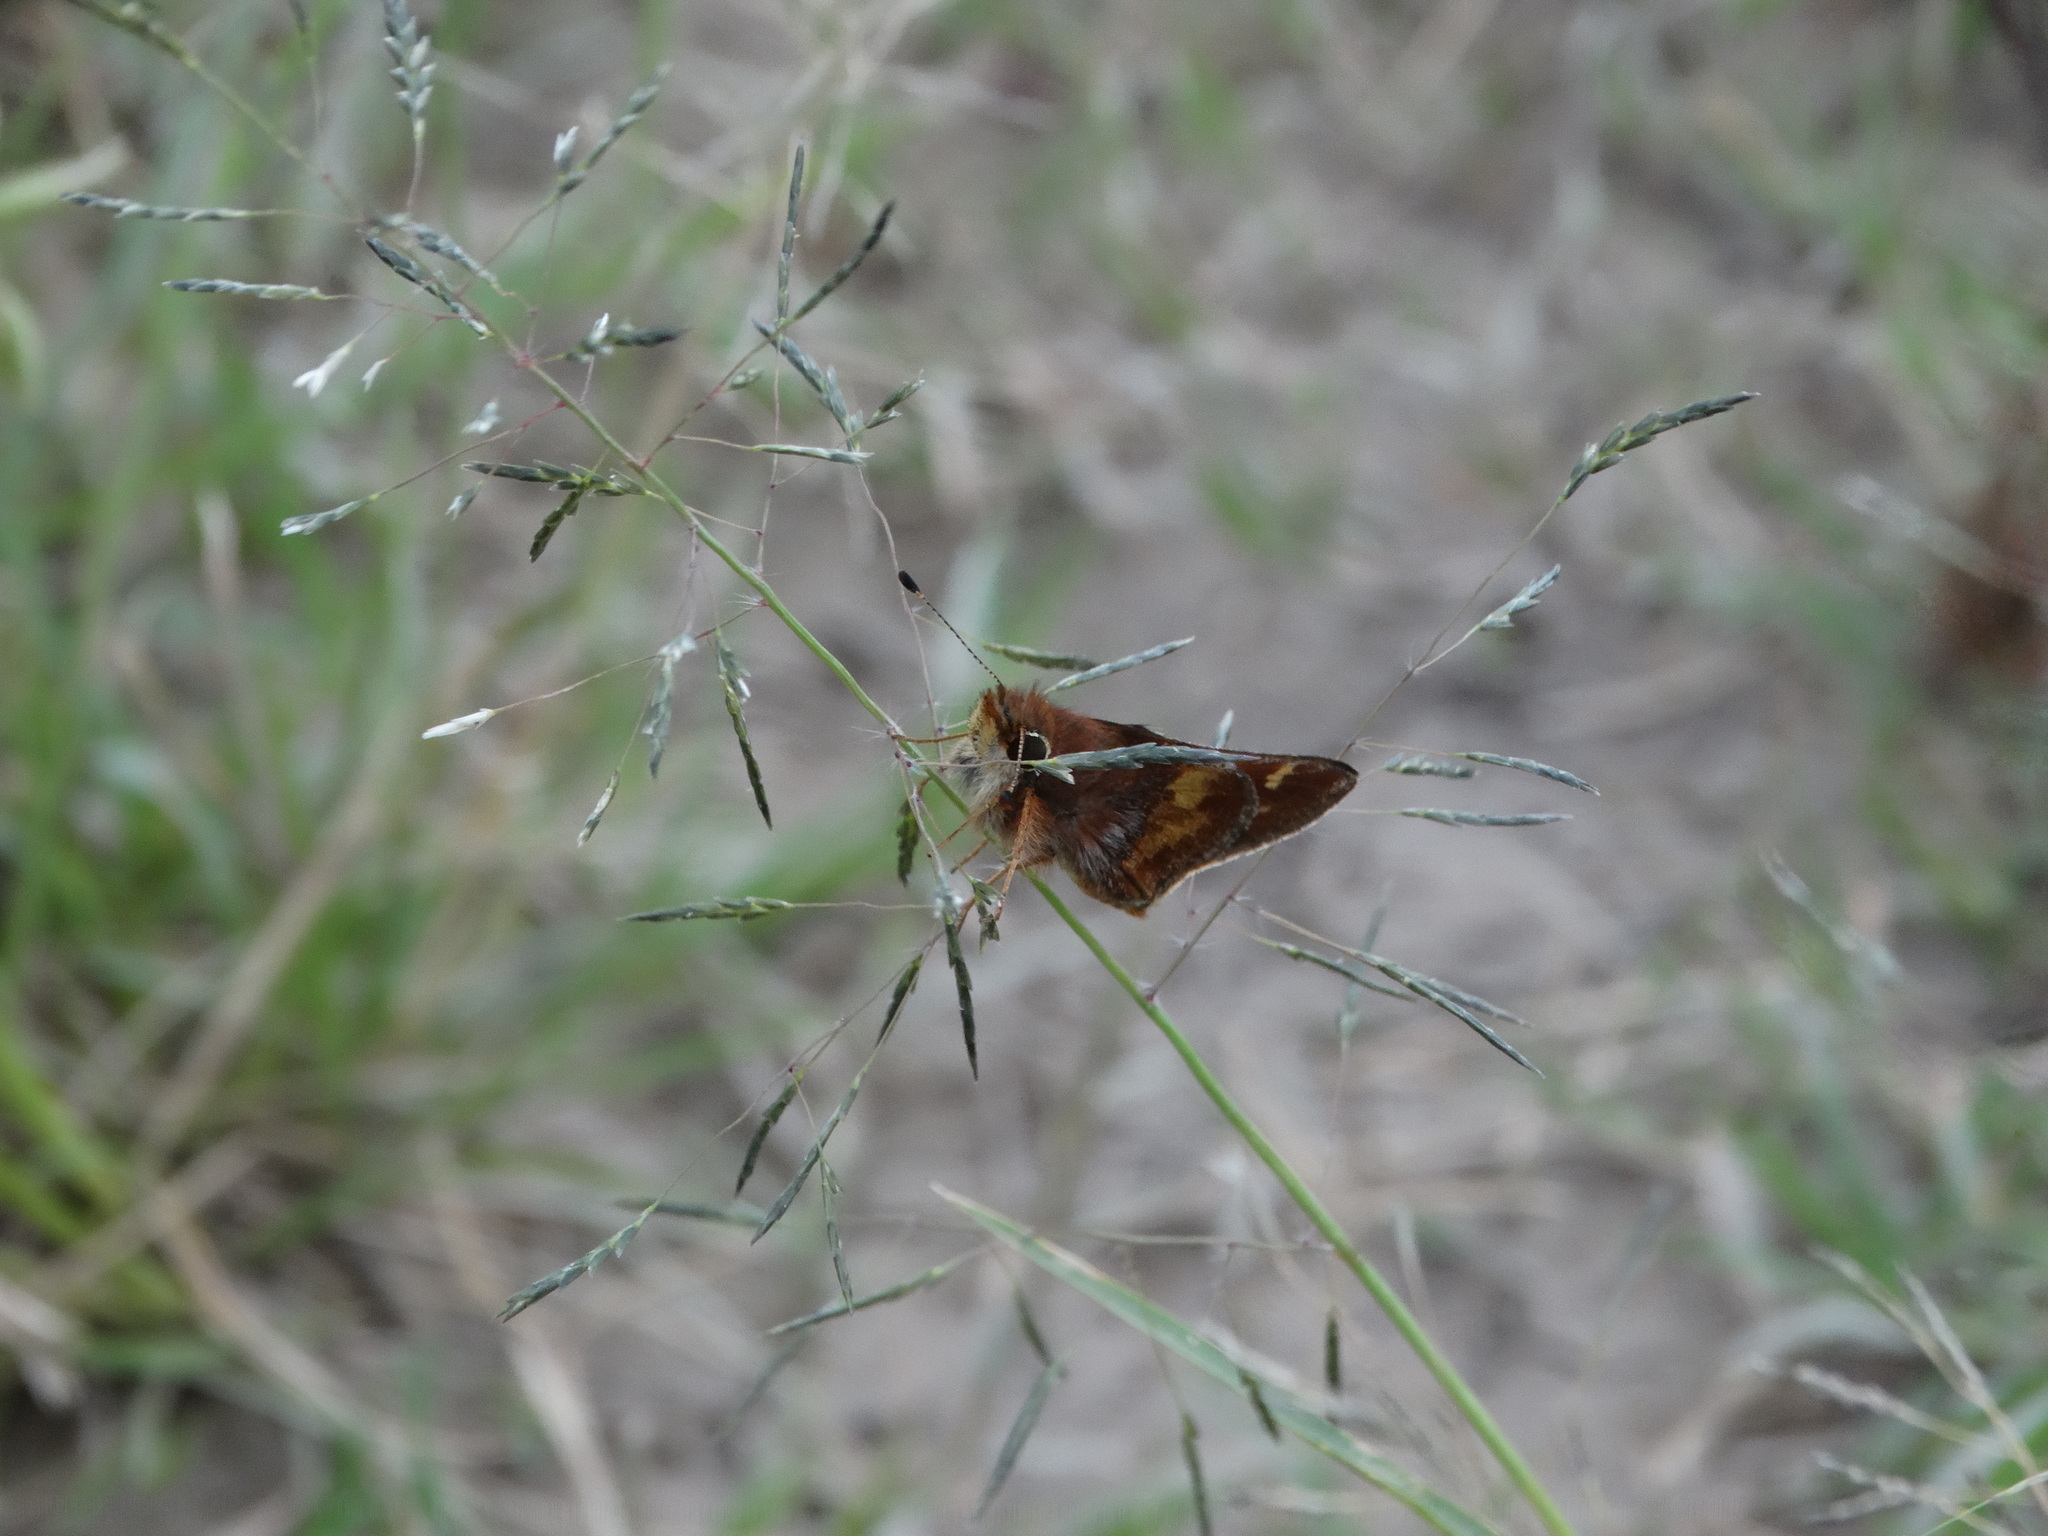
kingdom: Animalia
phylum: Arthropoda
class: Insecta
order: Lepidoptera
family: Hesperiidae
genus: Lon
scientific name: Lon
